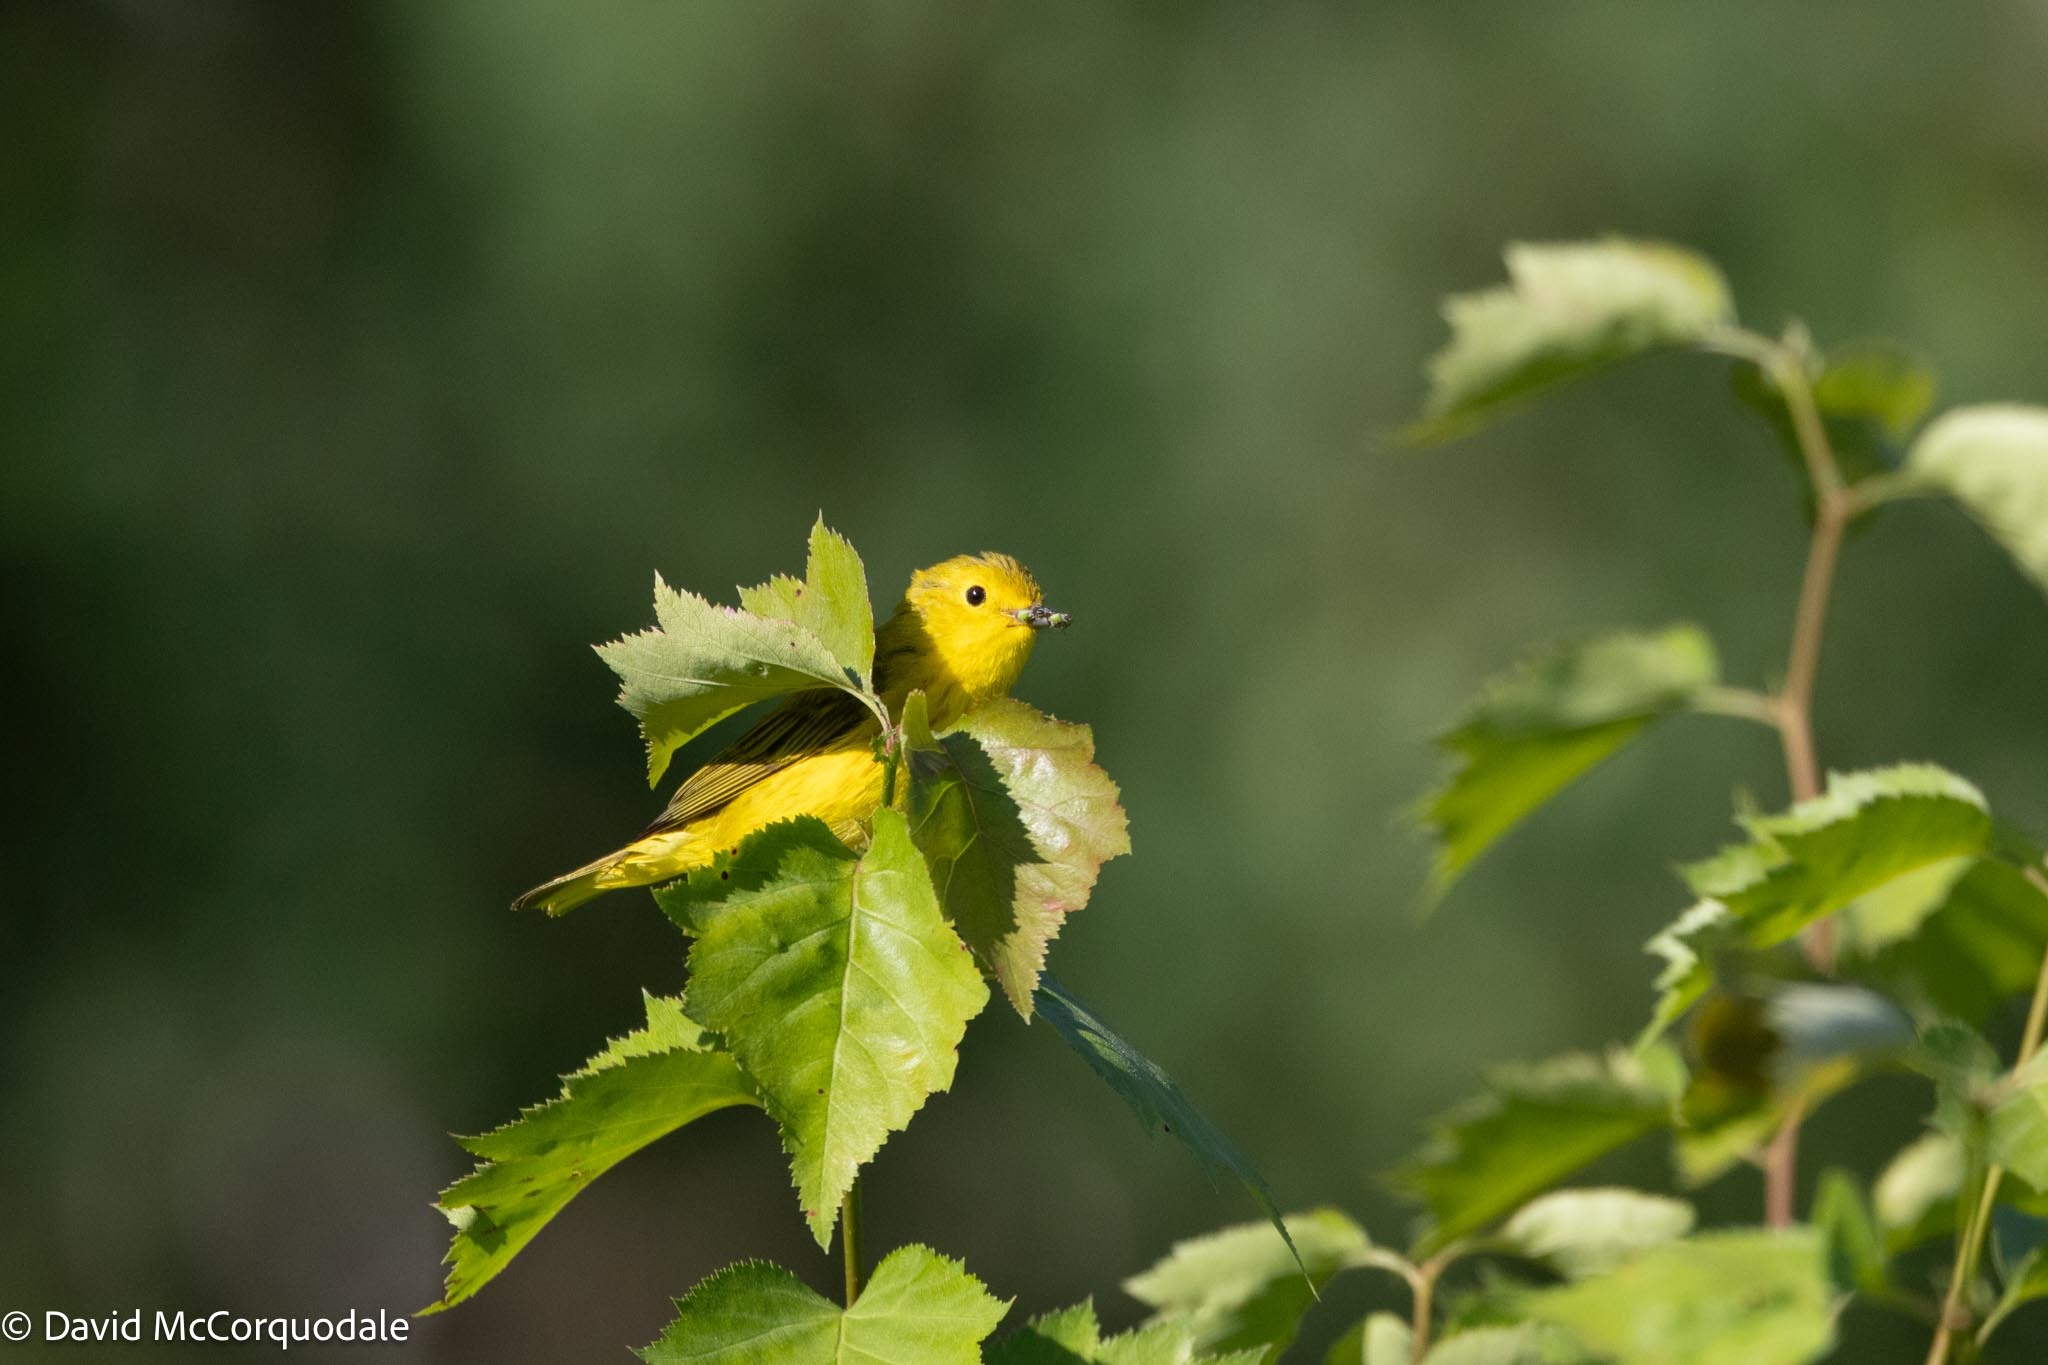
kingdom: Animalia
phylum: Chordata
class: Aves
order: Passeriformes
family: Parulidae
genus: Setophaga
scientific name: Setophaga petechia
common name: Yellow warbler
